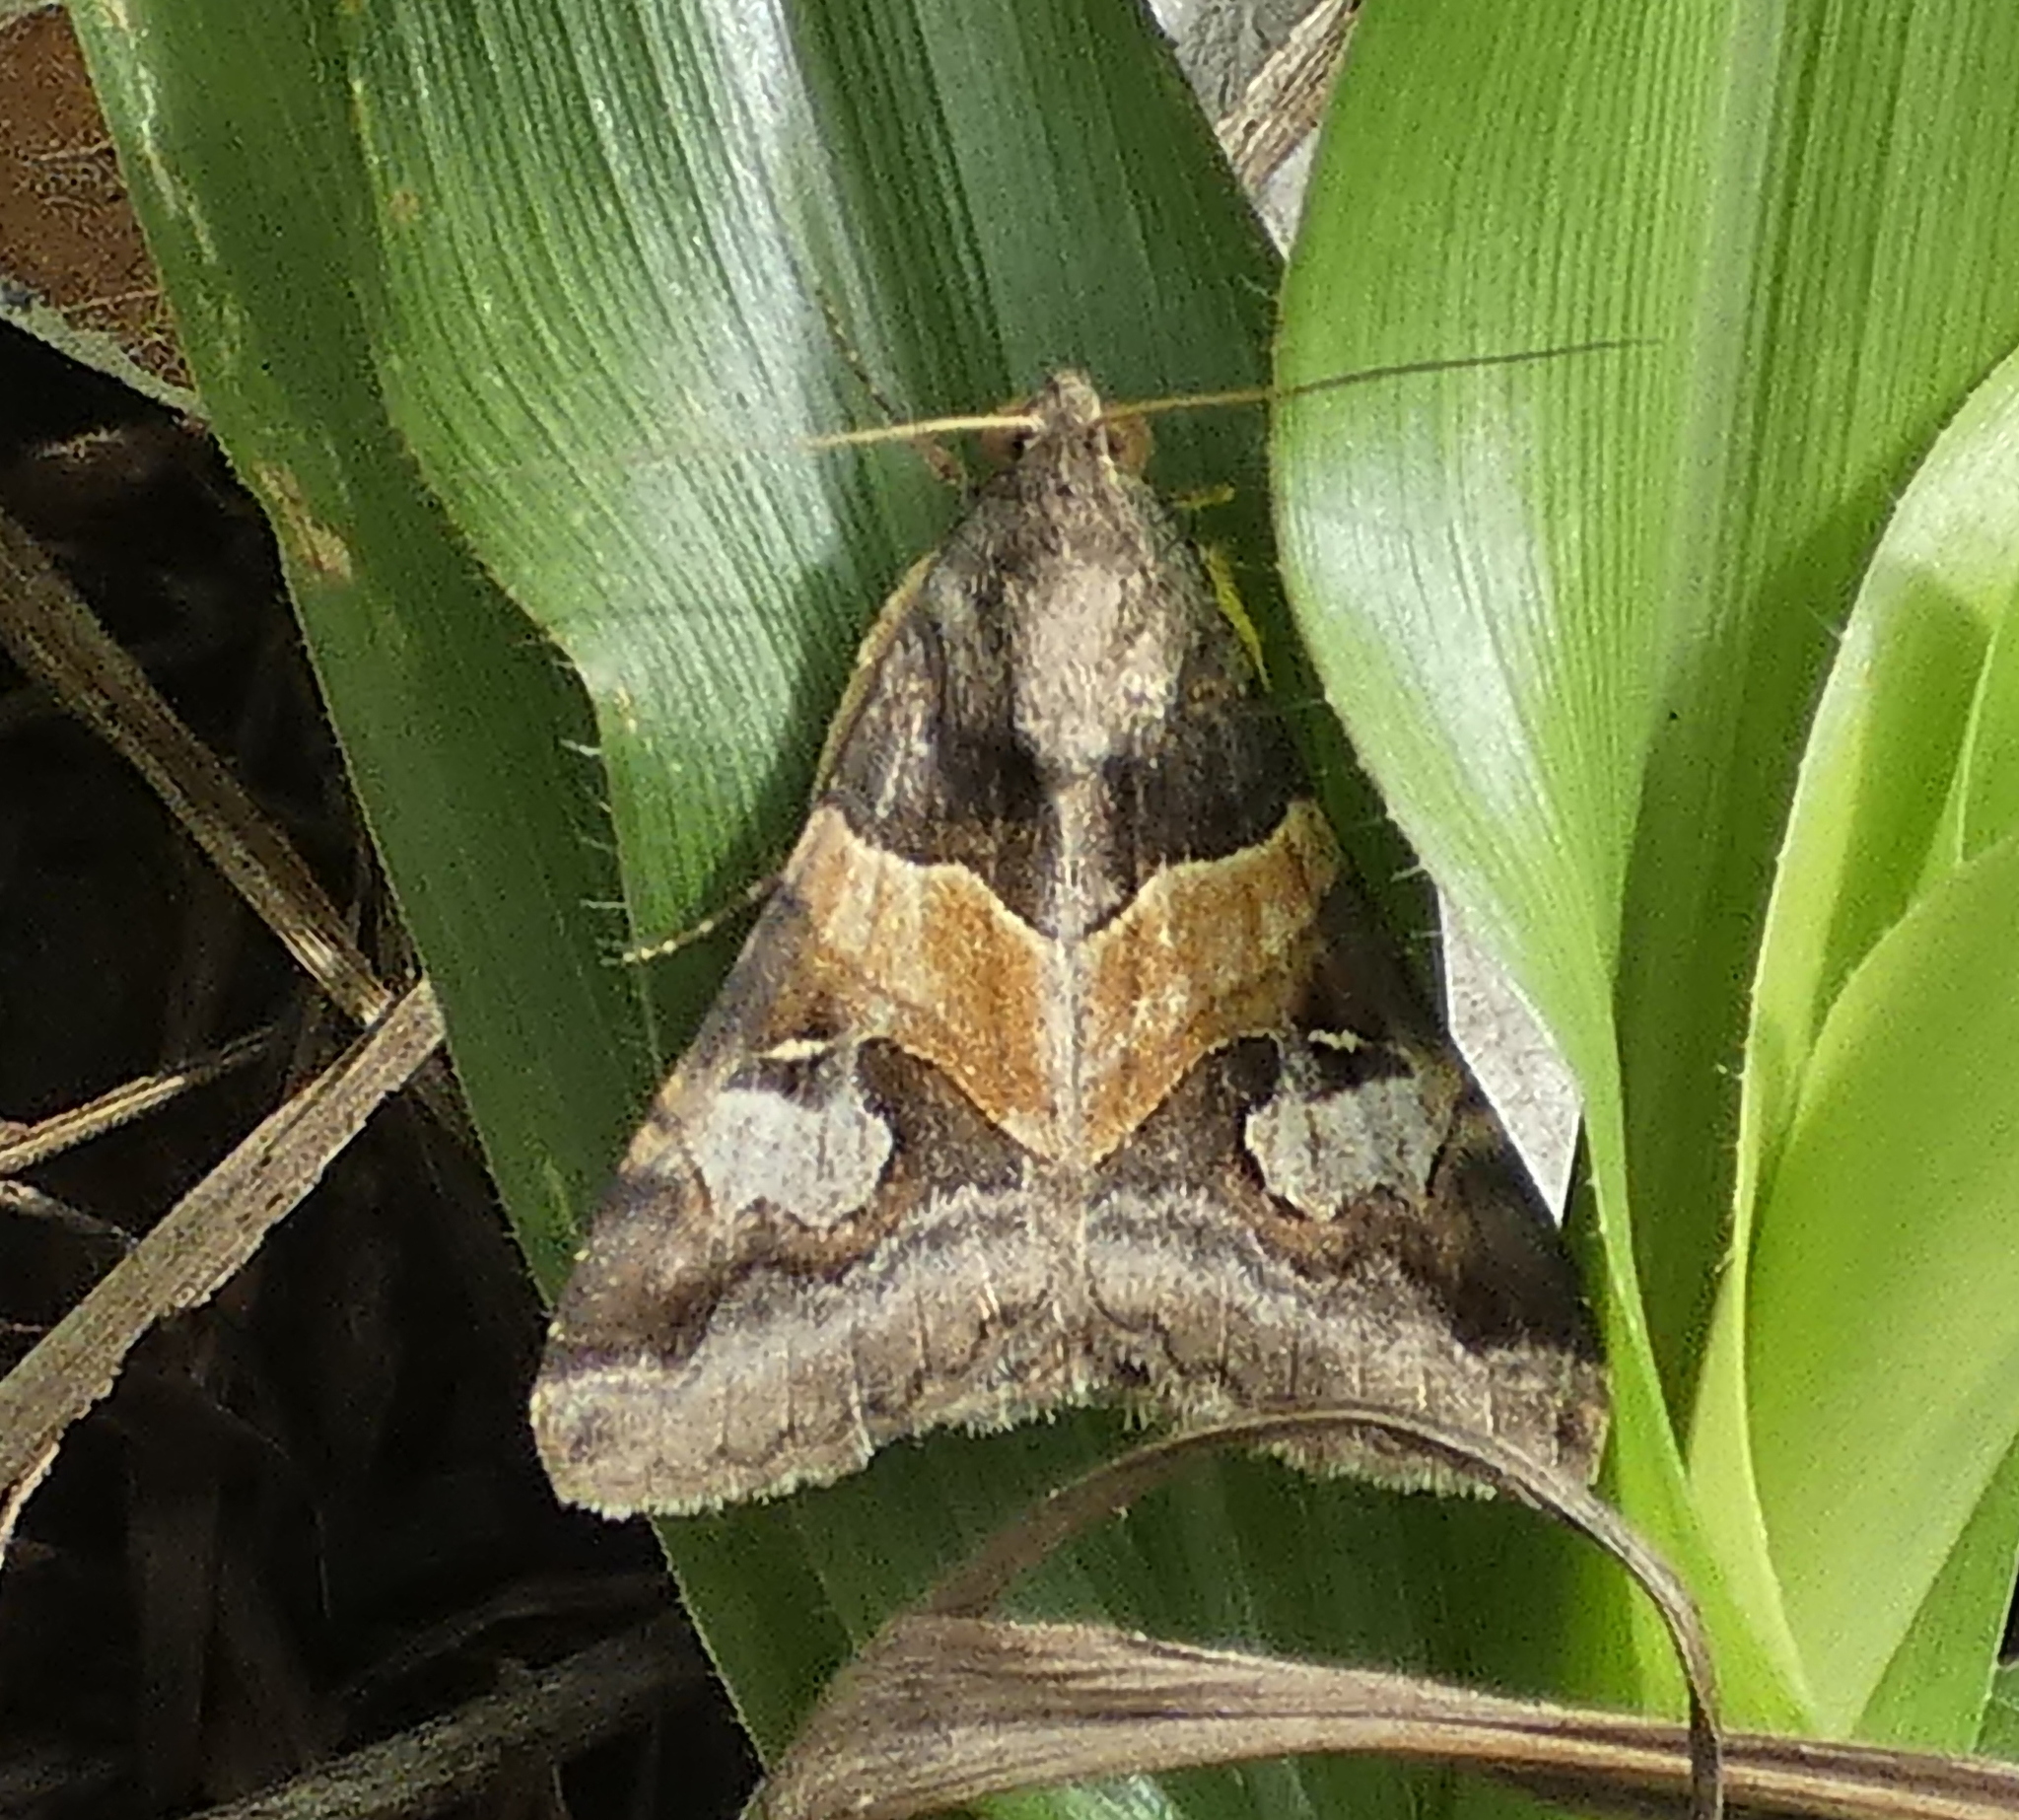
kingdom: Animalia
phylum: Arthropoda
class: Insecta
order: Lepidoptera
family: Erebidae
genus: Melipotis
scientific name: Melipotis ochrodes
